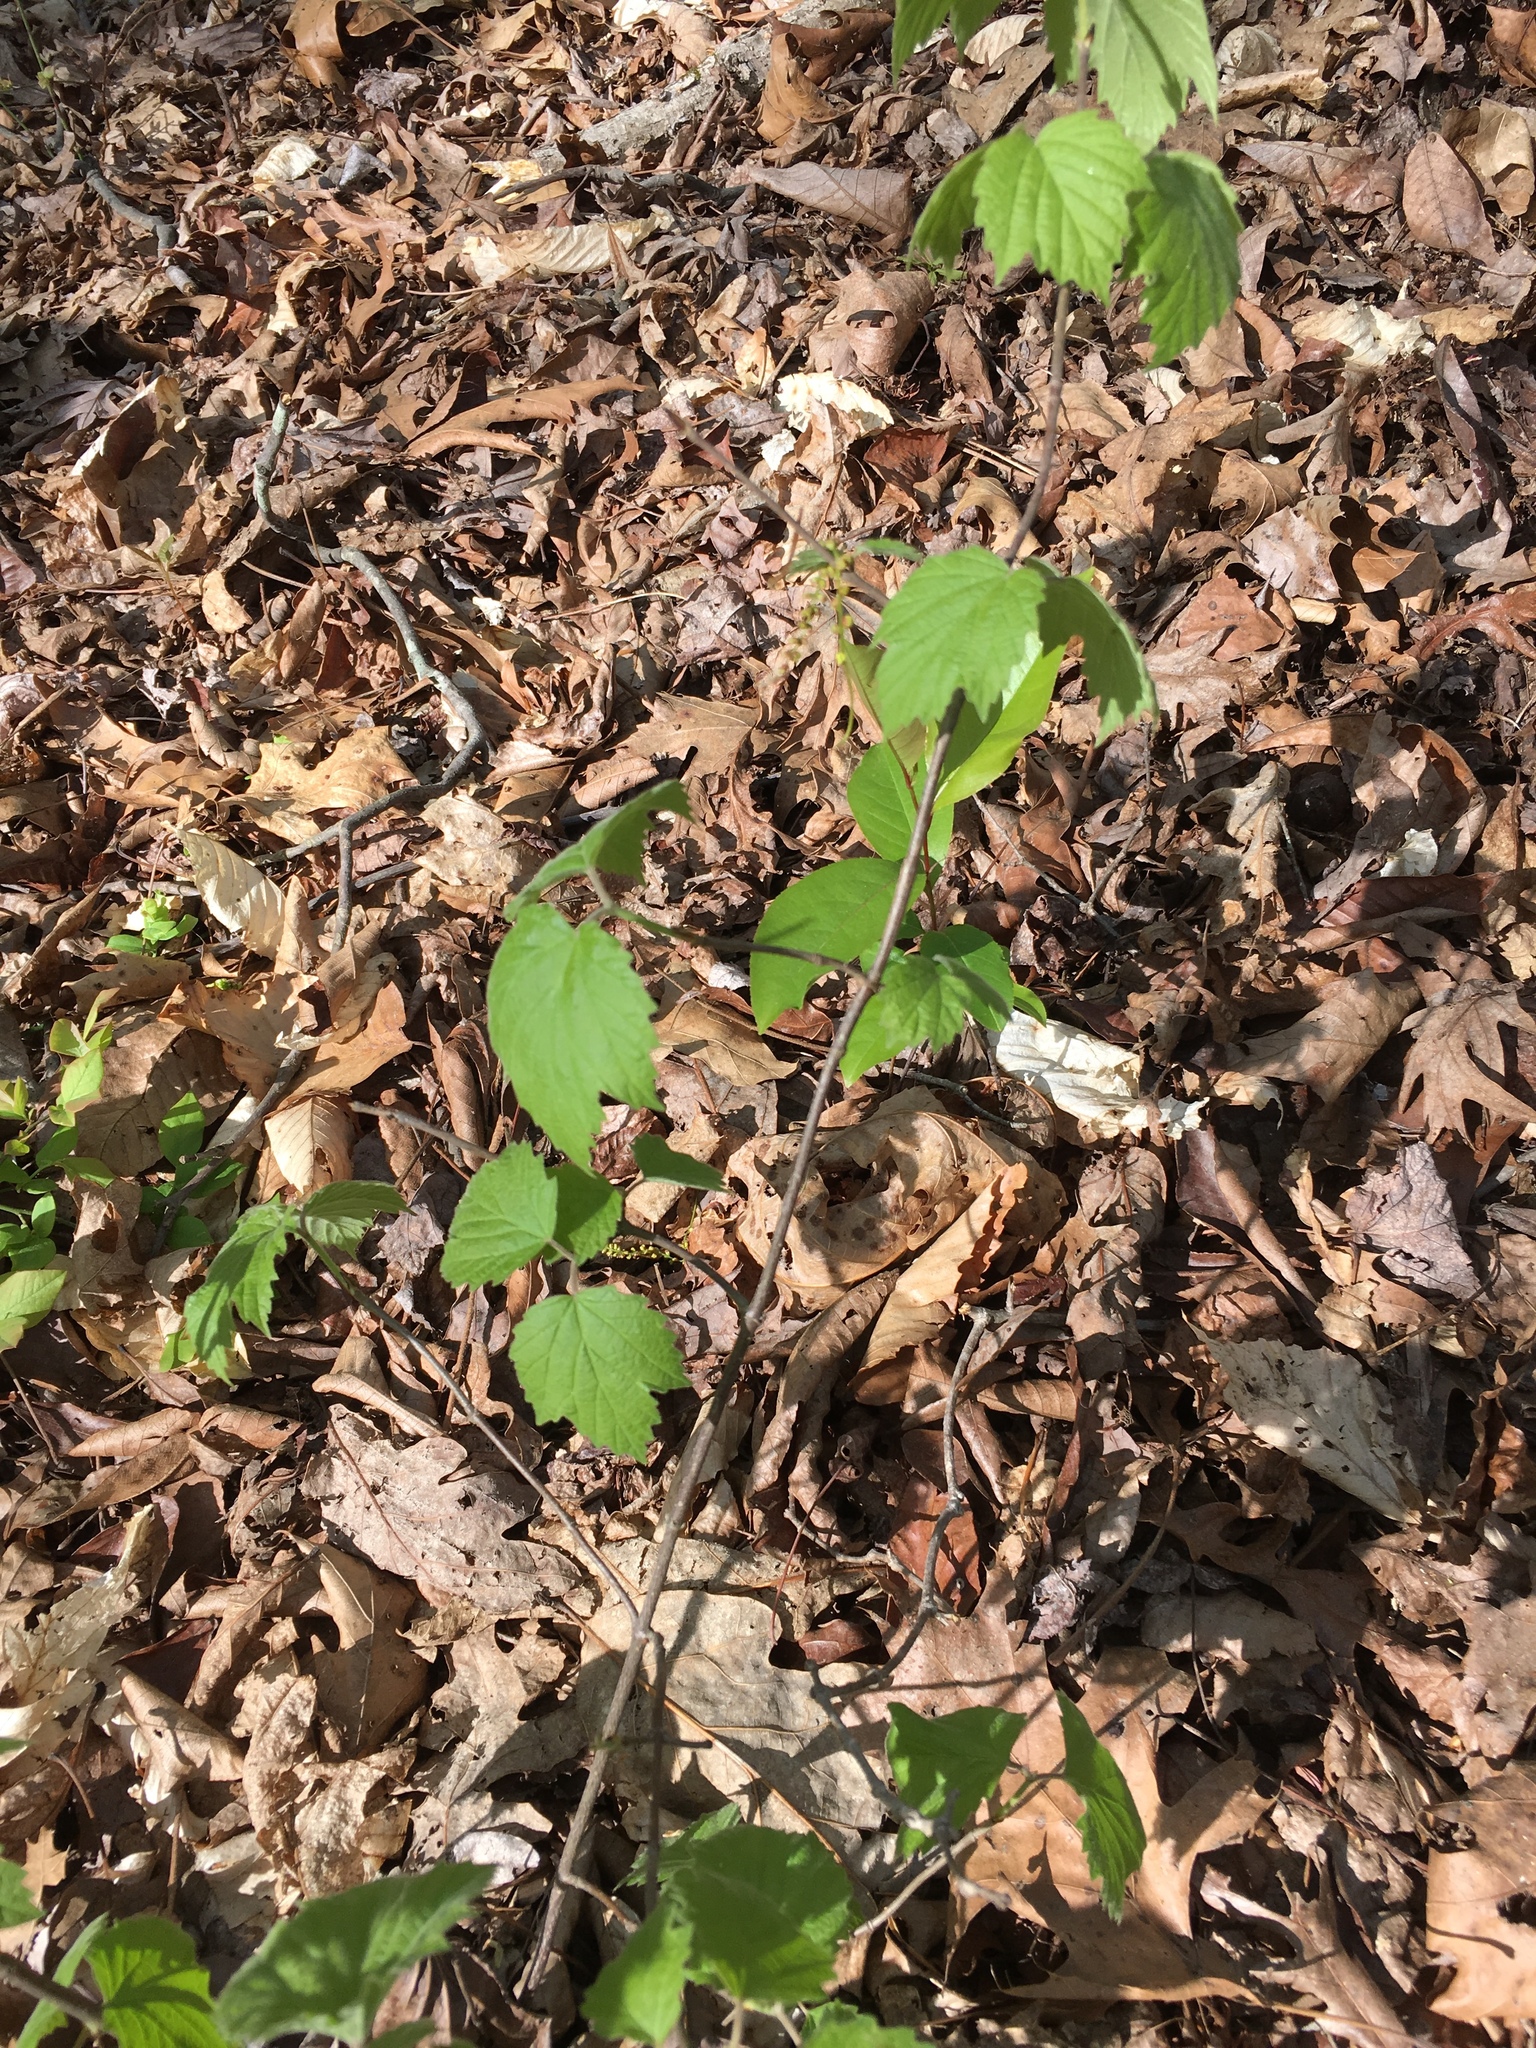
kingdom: Plantae
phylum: Tracheophyta
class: Magnoliopsida
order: Dipsacales
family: Viburnaceae
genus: Viburnum
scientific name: Viburnum acerifolium
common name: Dockmackie
